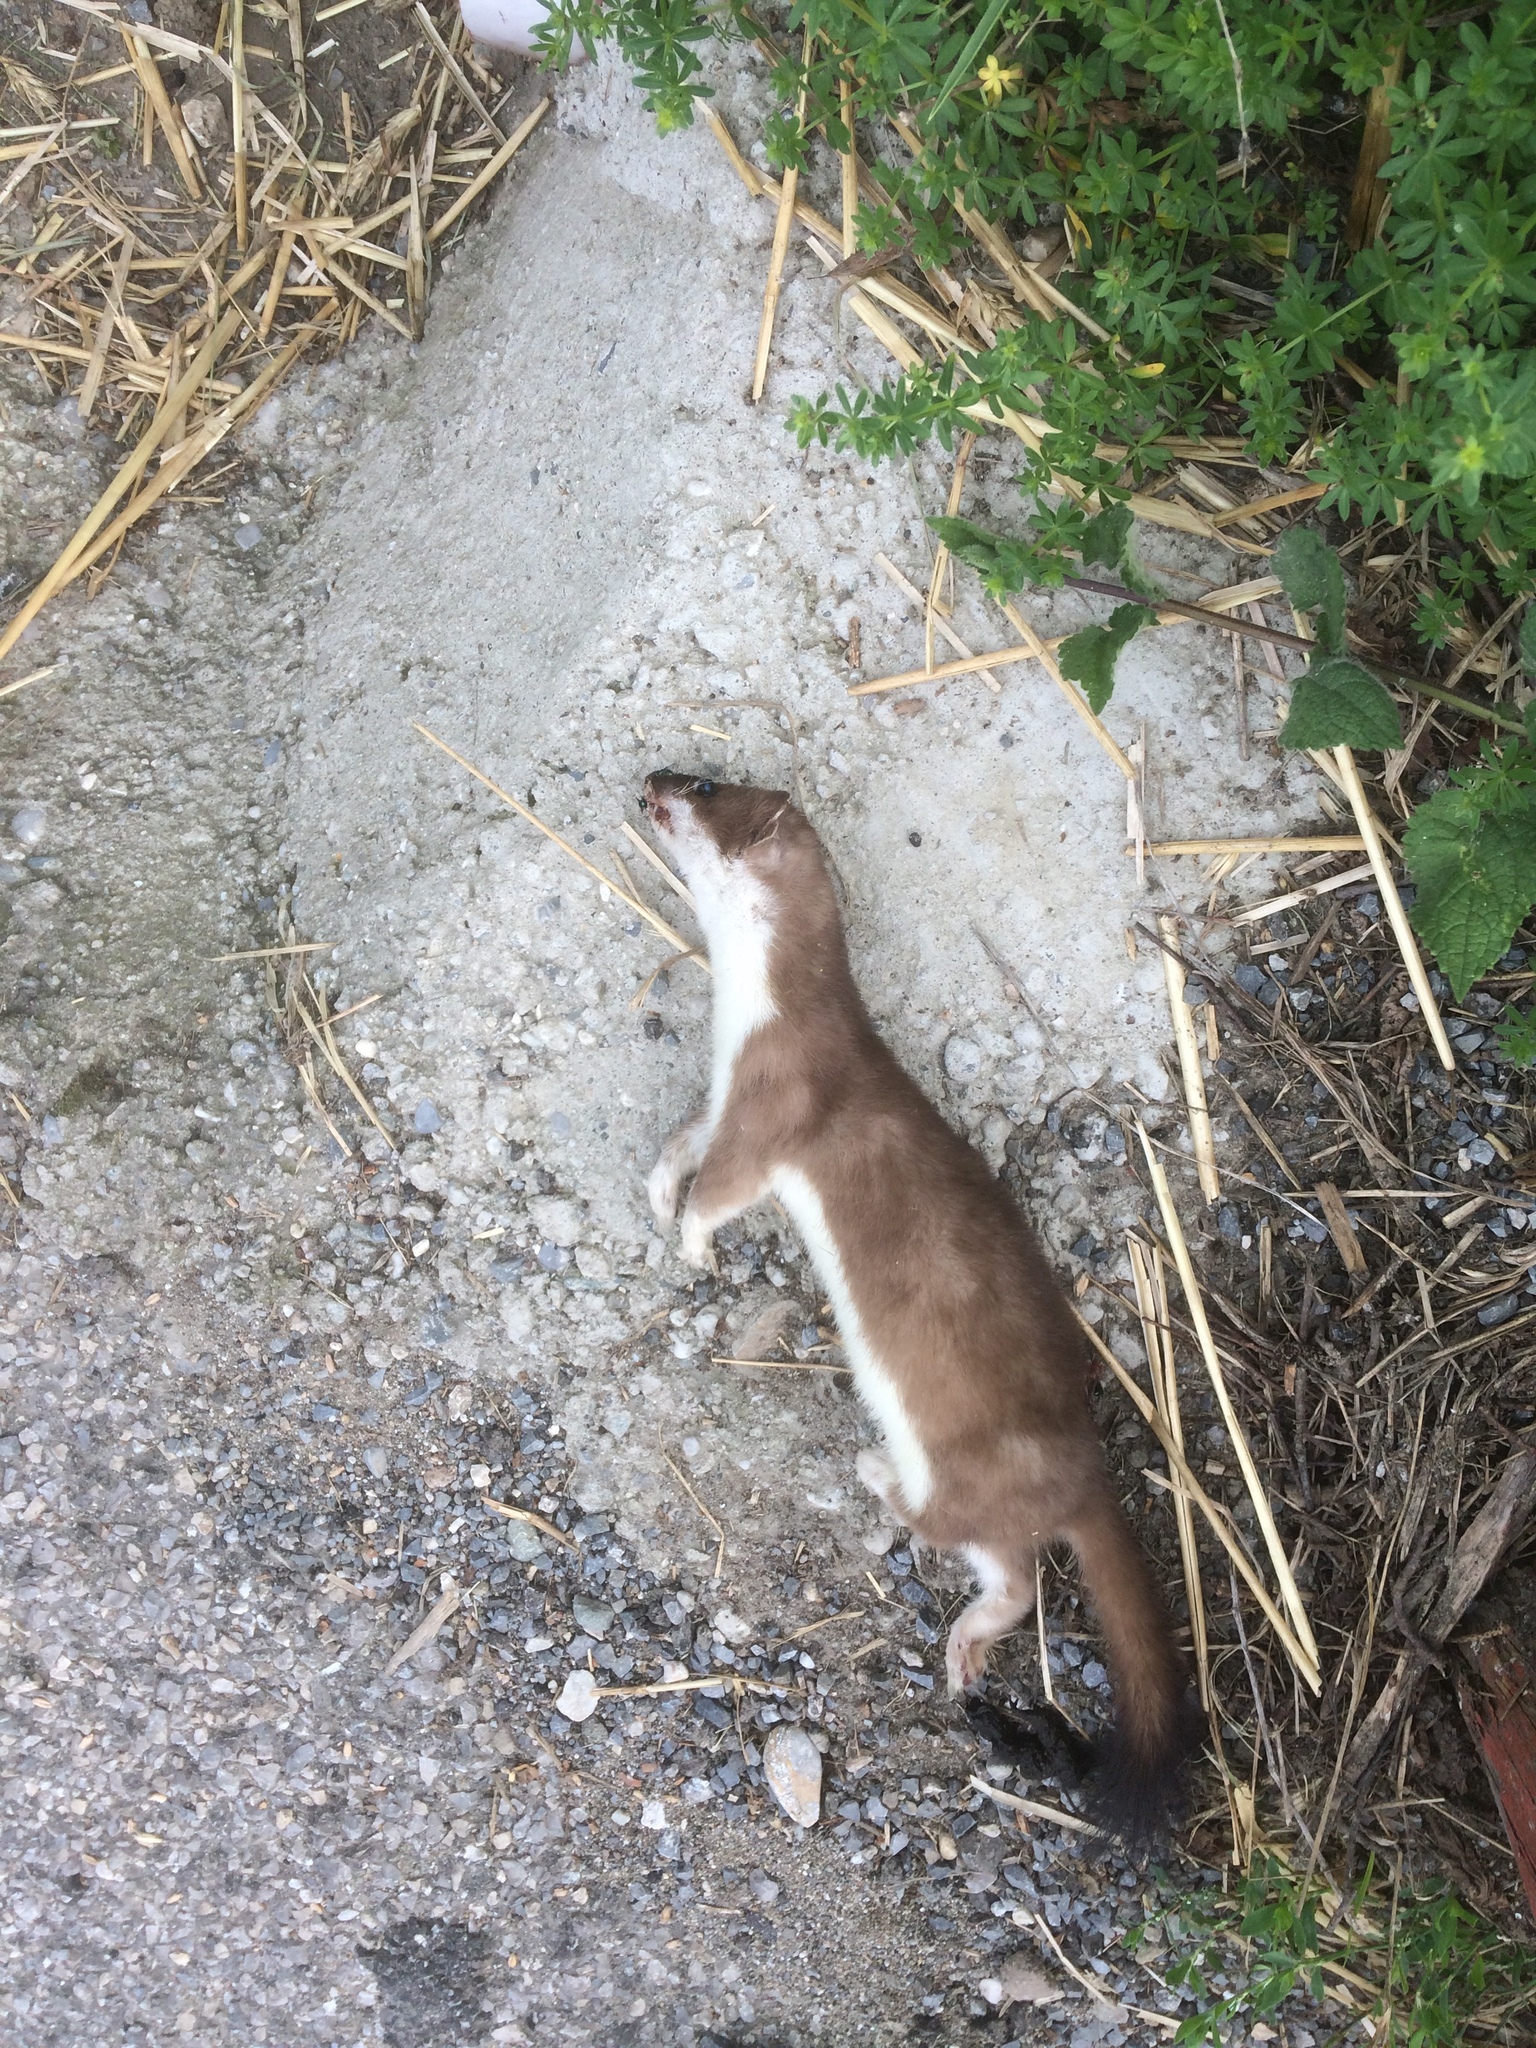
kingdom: Animalia
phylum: Chordata
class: Mammalia
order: Carnivora
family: Mustelidae
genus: Mustela
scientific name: Mustela erminea
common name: Stoat
